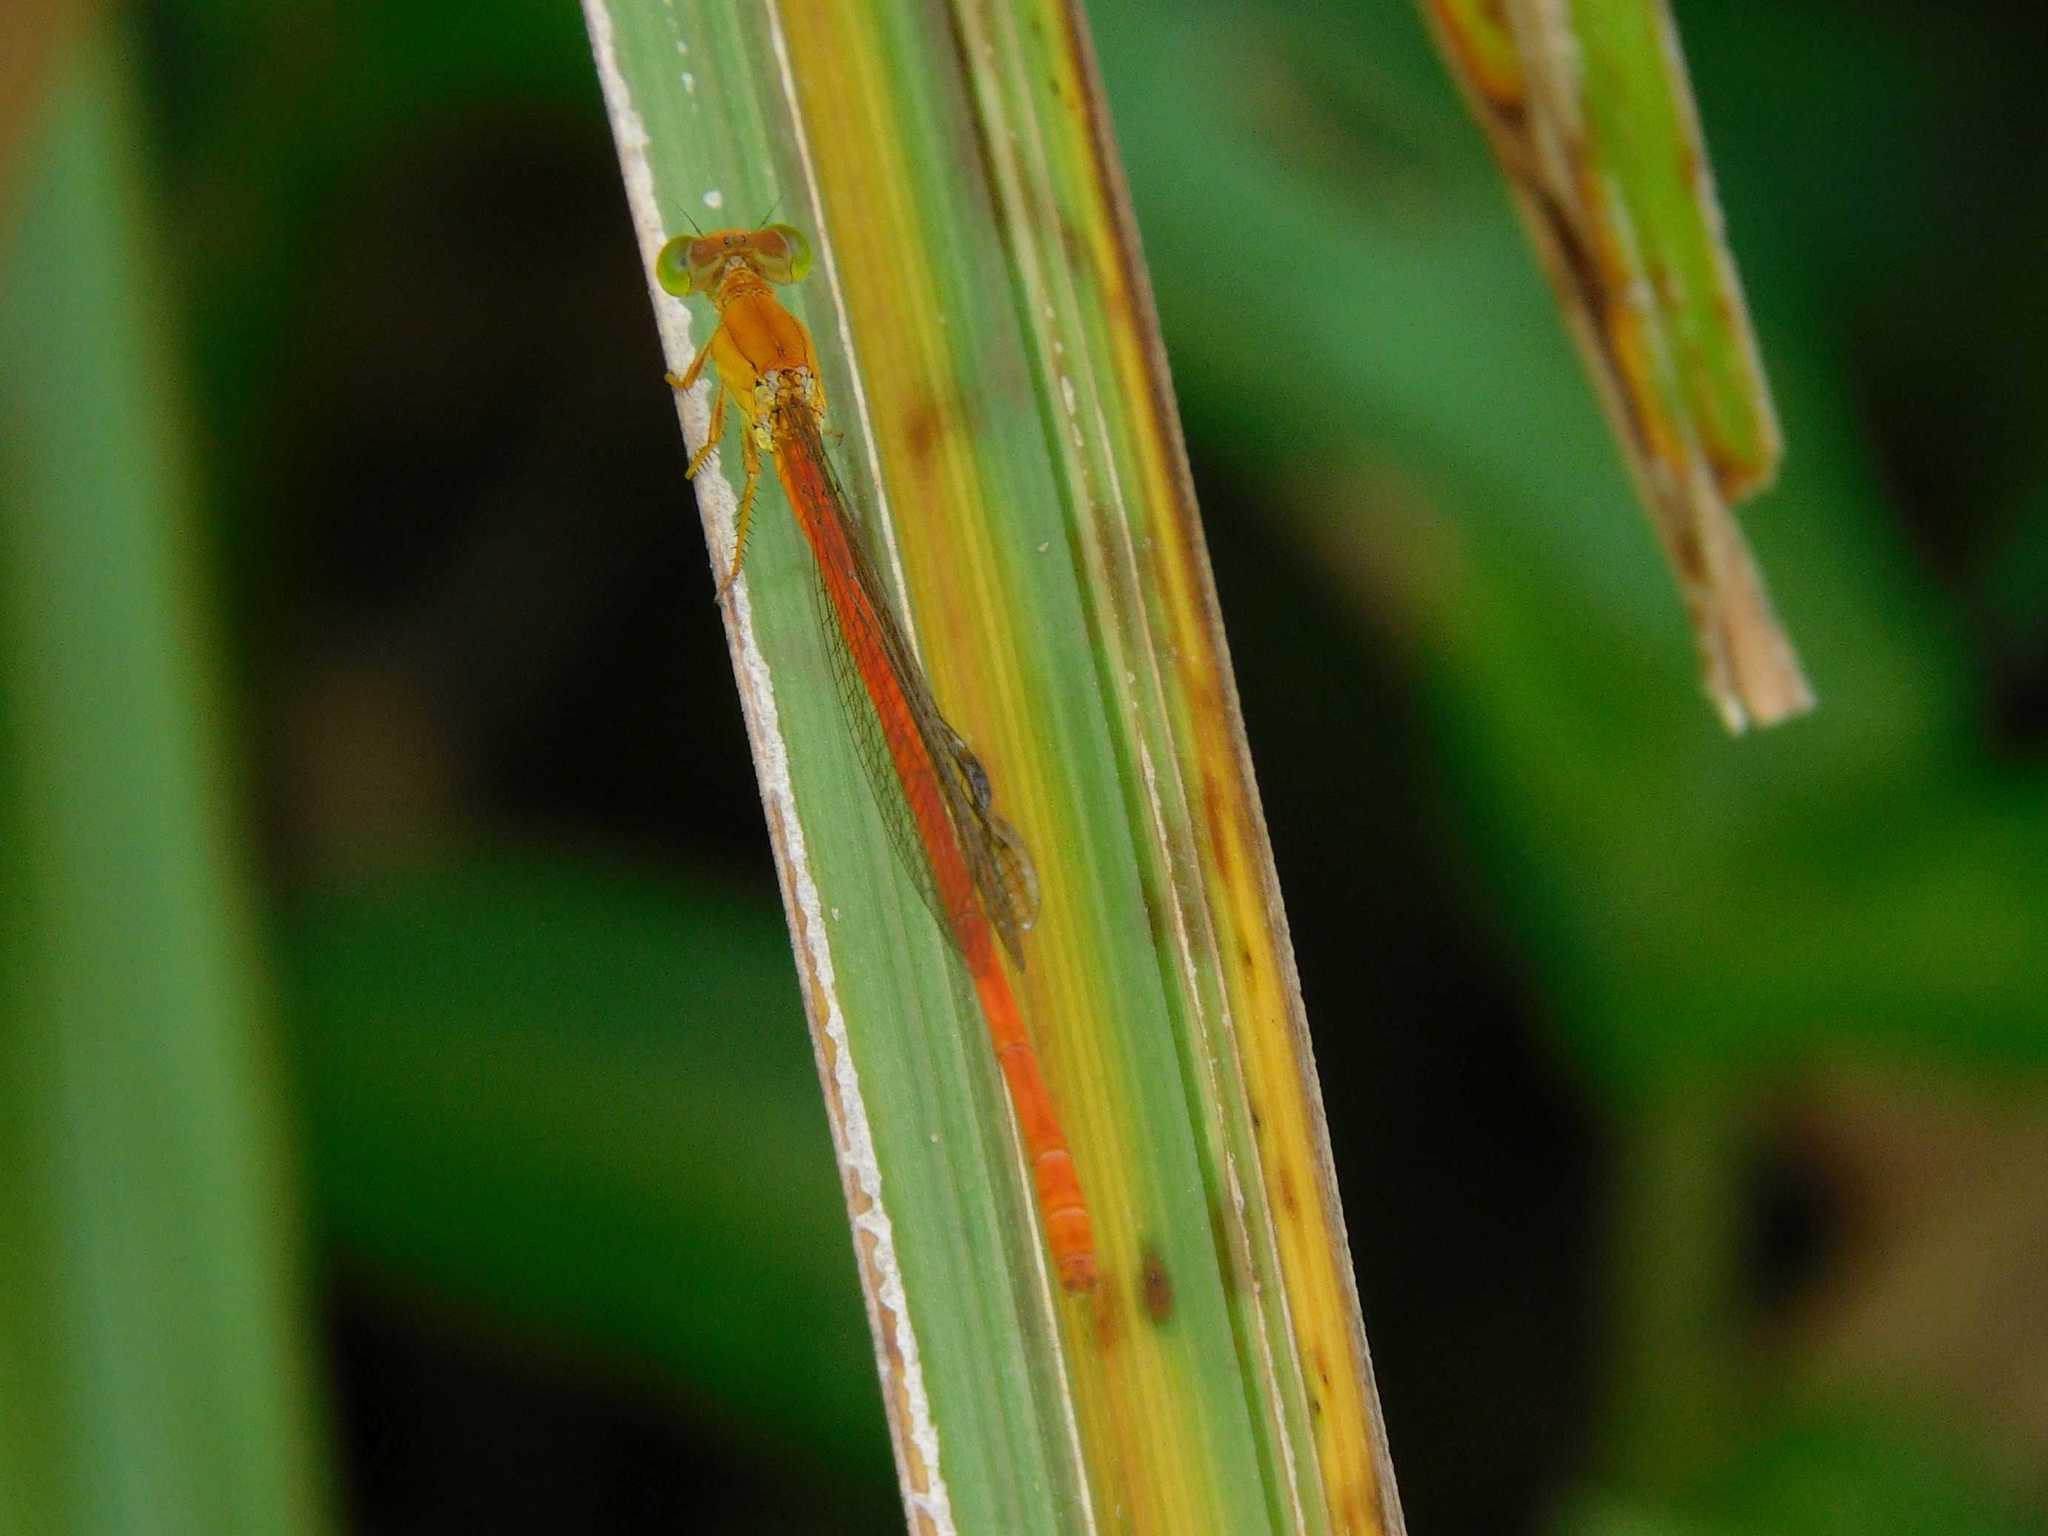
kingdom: Animalia
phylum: Arthropoda
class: Insecta
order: Odonata
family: Coenagrionidae
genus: Ceriagrion
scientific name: Ceriagrion glabrum
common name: Common pond damsel
